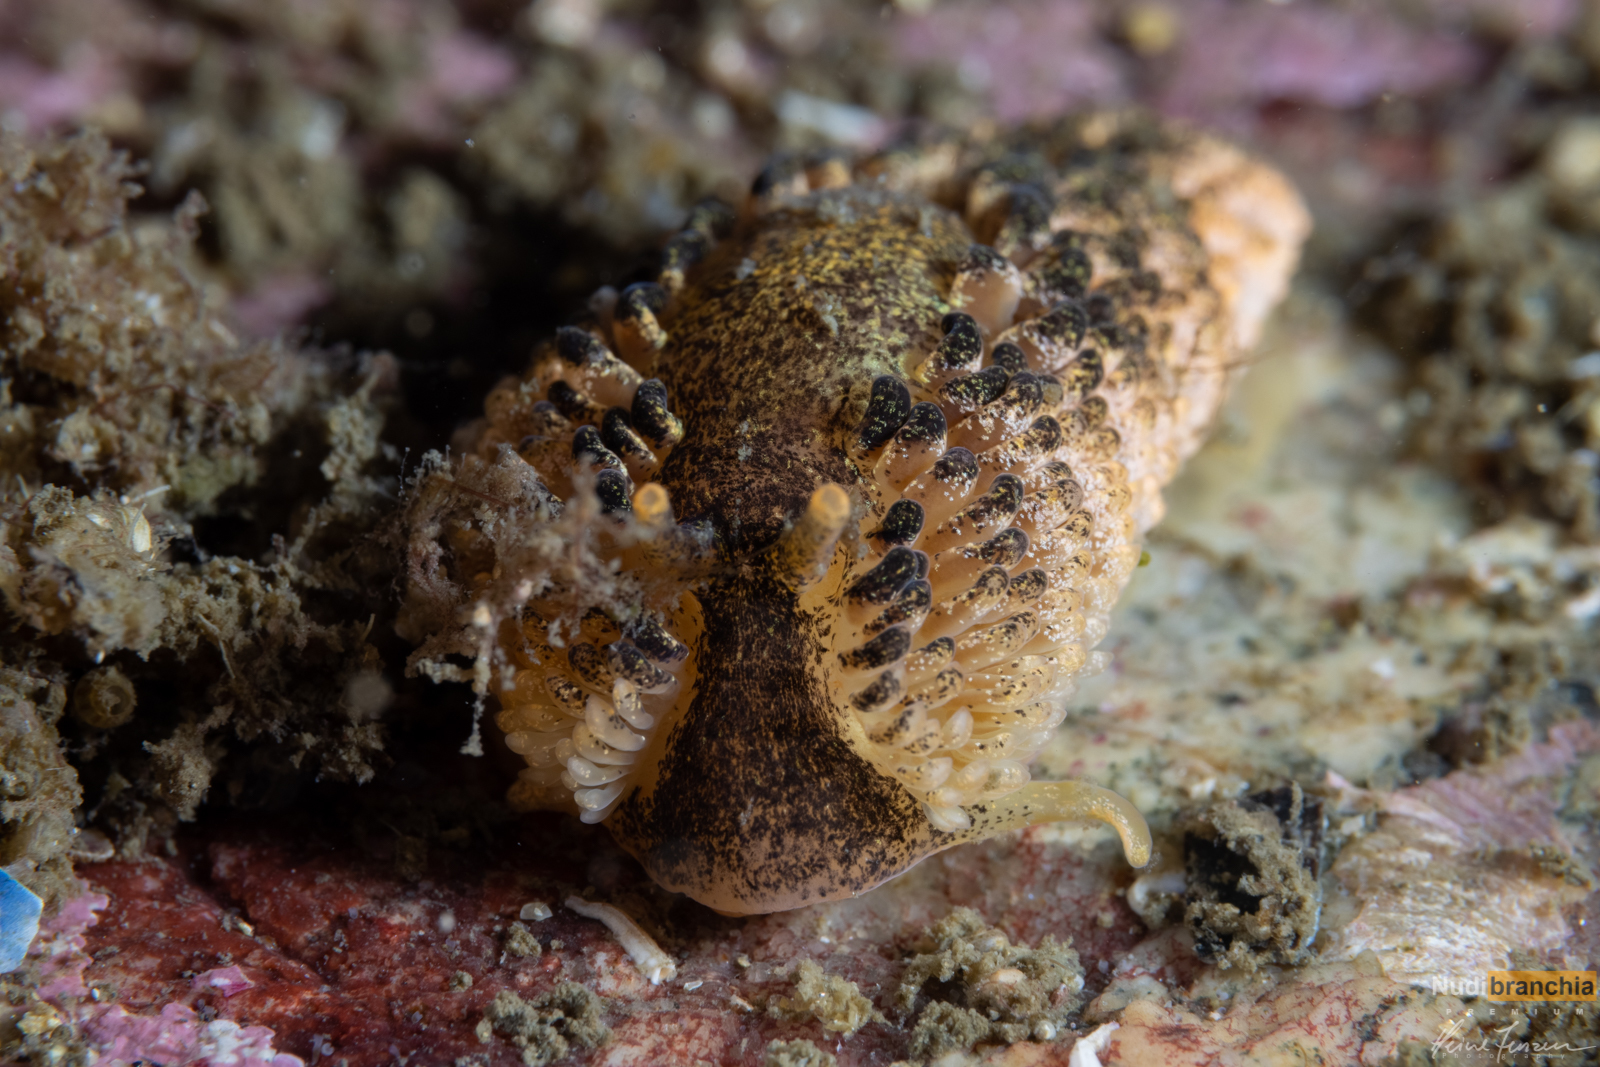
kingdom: Animalia
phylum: Mollusca
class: Gastropoda
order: Nudibranchia
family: Aeolidiidae
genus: Aeolidia
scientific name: Aeolidia papillosa
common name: Common grey sea slug
